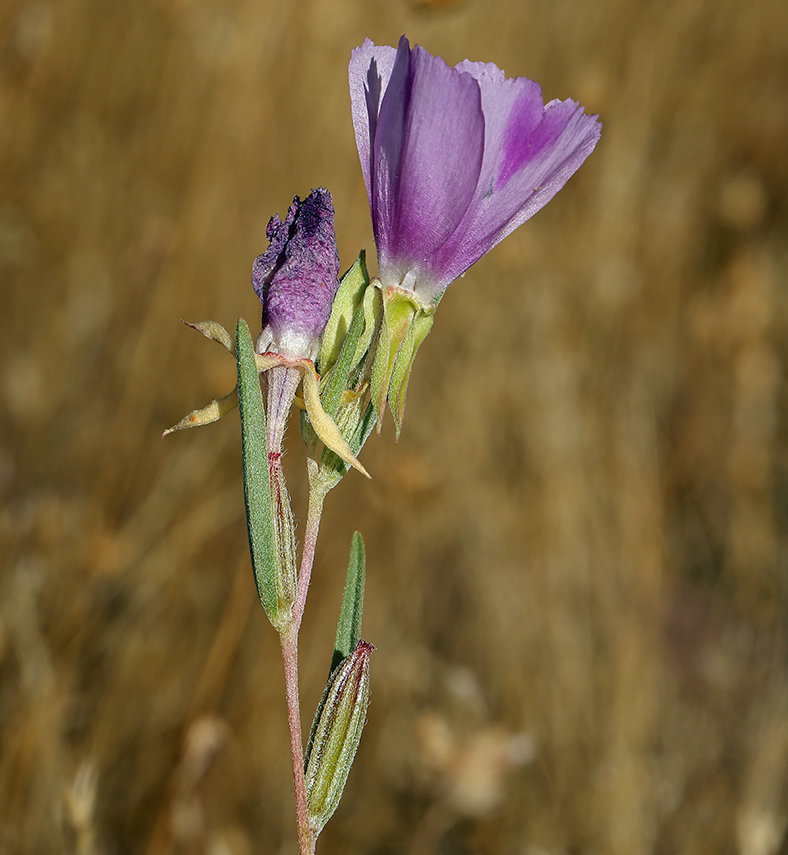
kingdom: Plantae
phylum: Tracheophyta
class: Magnoliopsida
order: Myrtales
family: Onagraceae
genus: Clarkia
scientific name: Clarkia purpurea
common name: Purple clarkia
